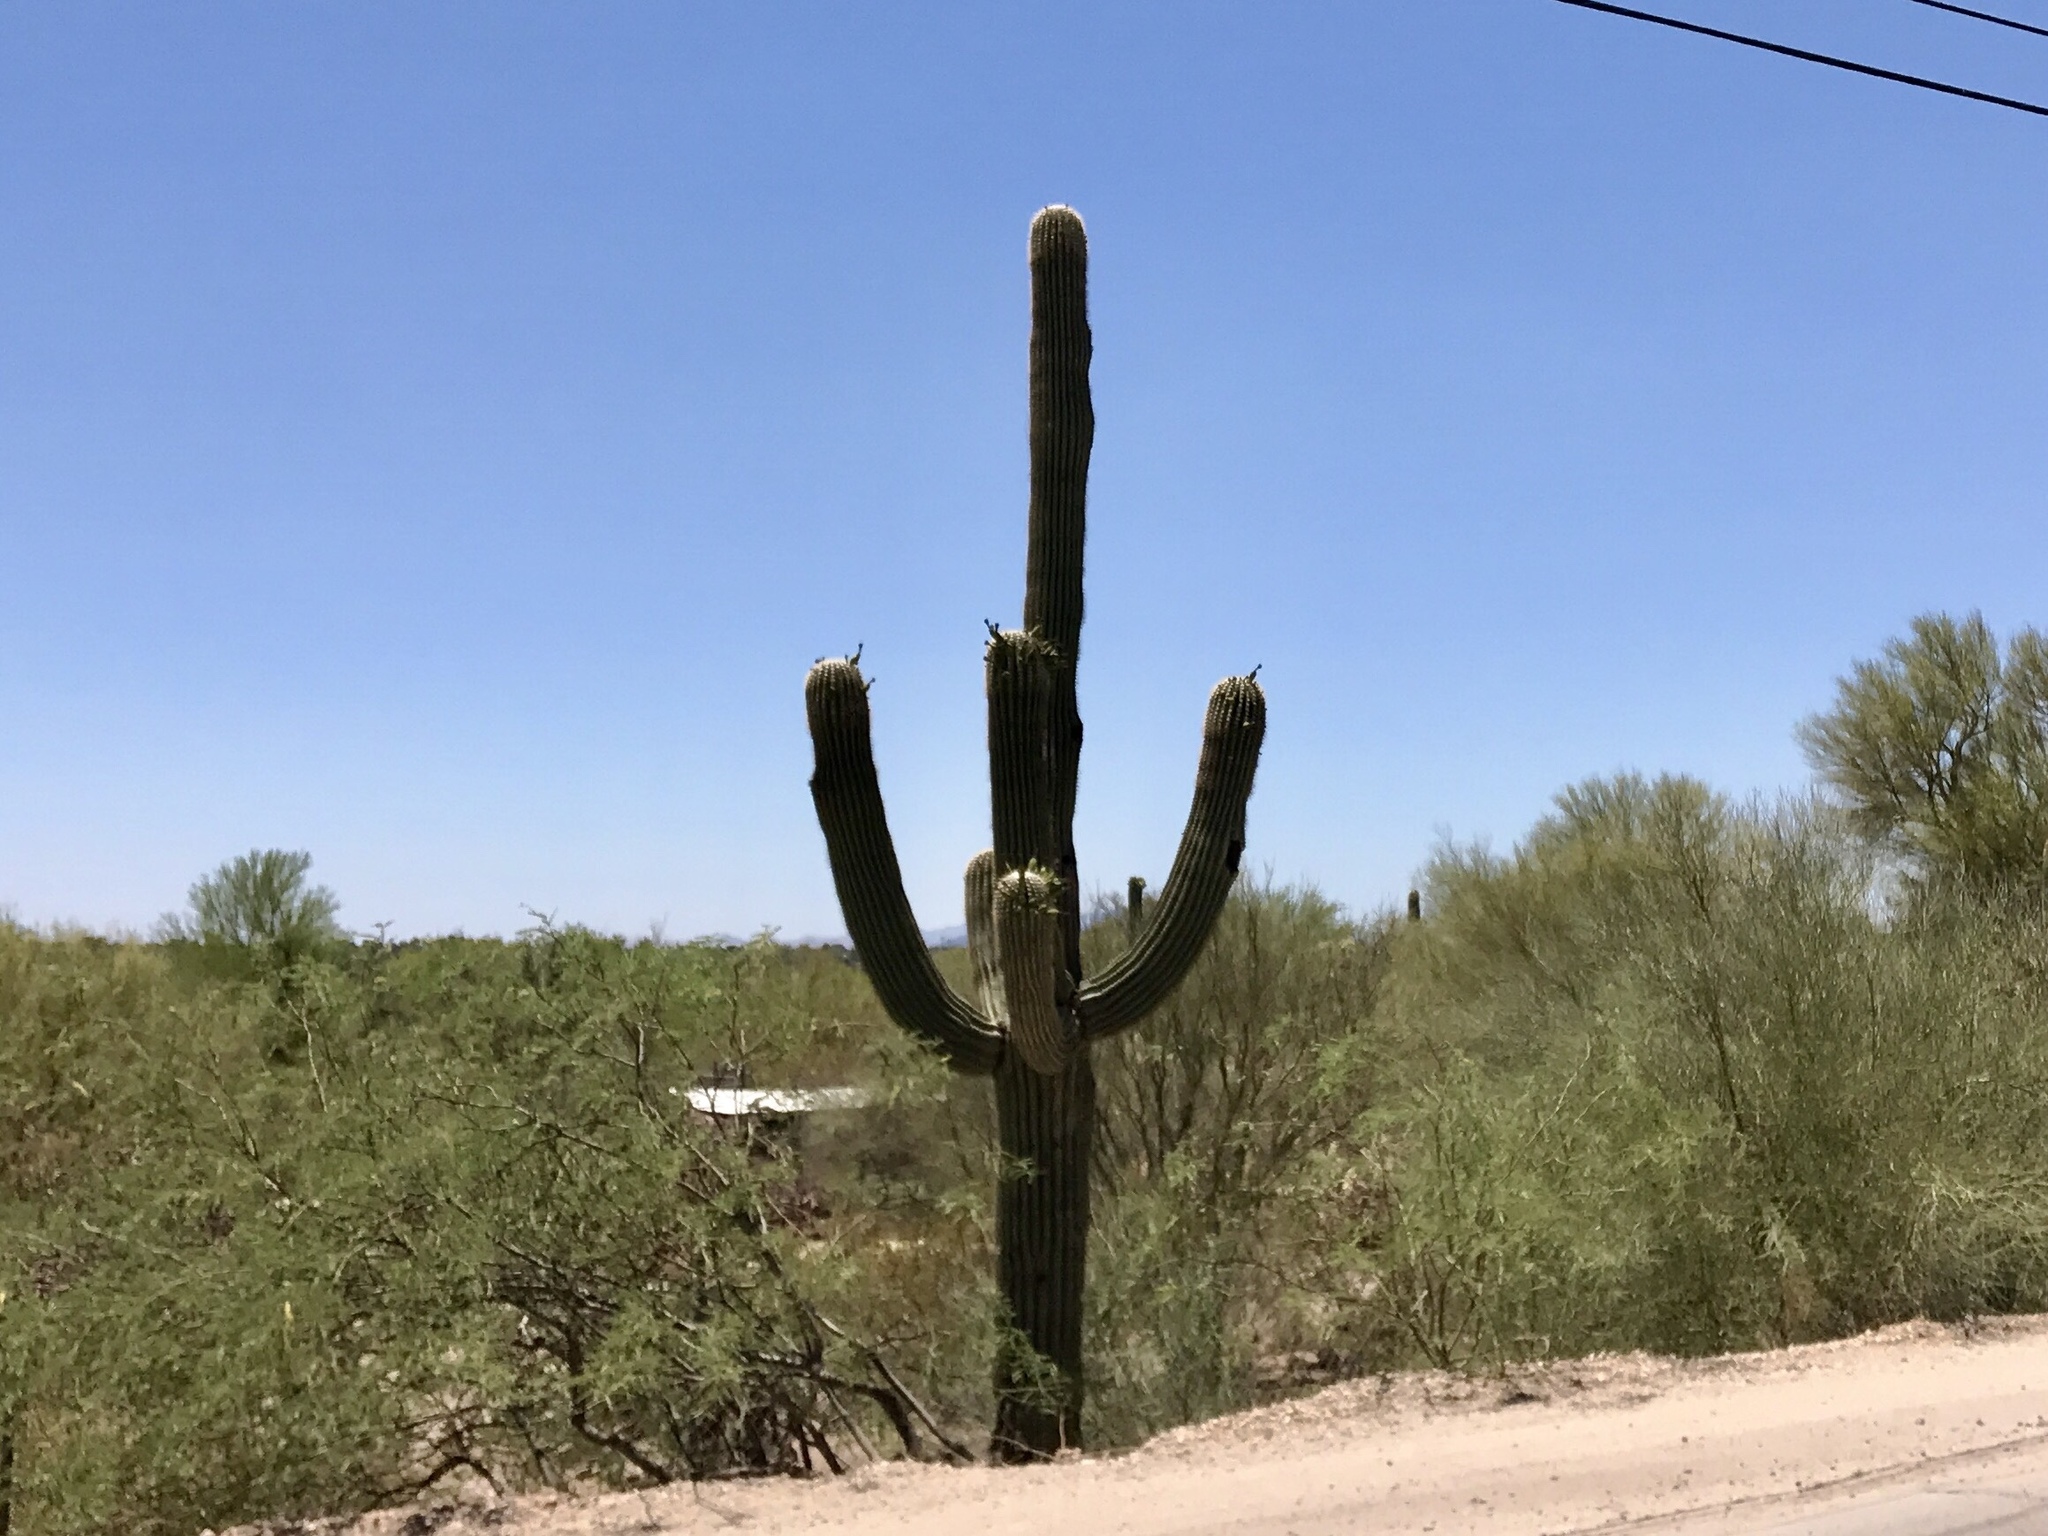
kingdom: Plantae
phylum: Tracheophyta
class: Magnoliopsida
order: Caryophyllales
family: Cactaceae
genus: Carnegiea
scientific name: Carnegiea gigantea
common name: Saguaro
